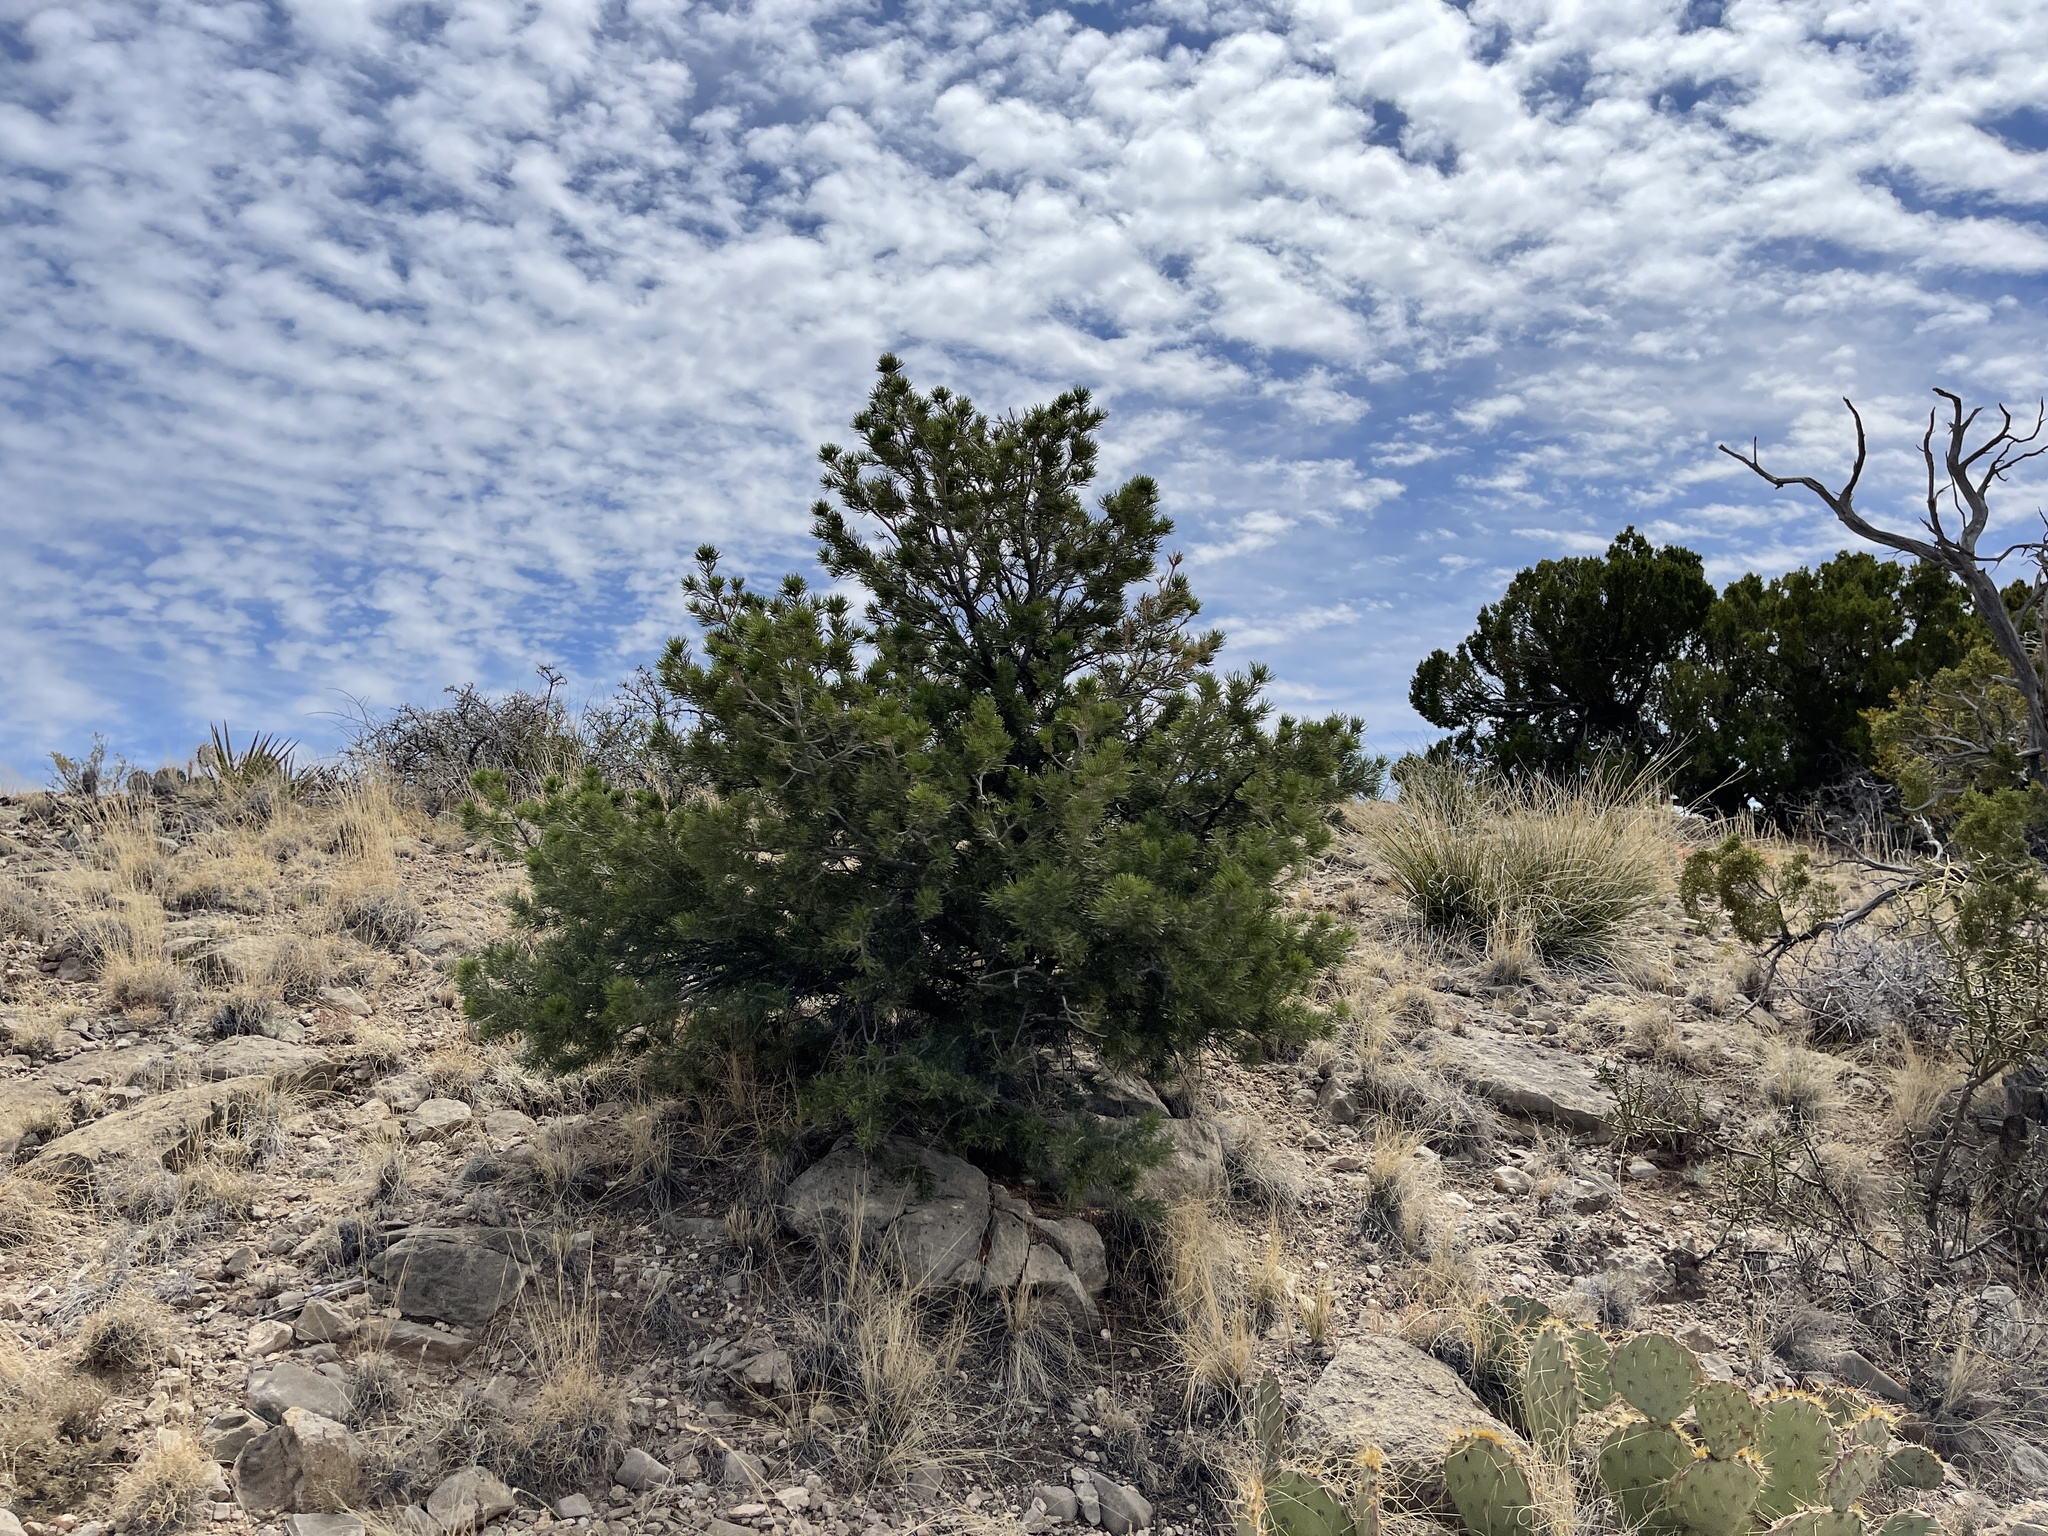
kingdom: Plantae
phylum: Tracheophyta
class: Pinopsida
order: Pinales
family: Pinaceae
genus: Pinus
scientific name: Pinus edulis
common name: Colorado pinyon
